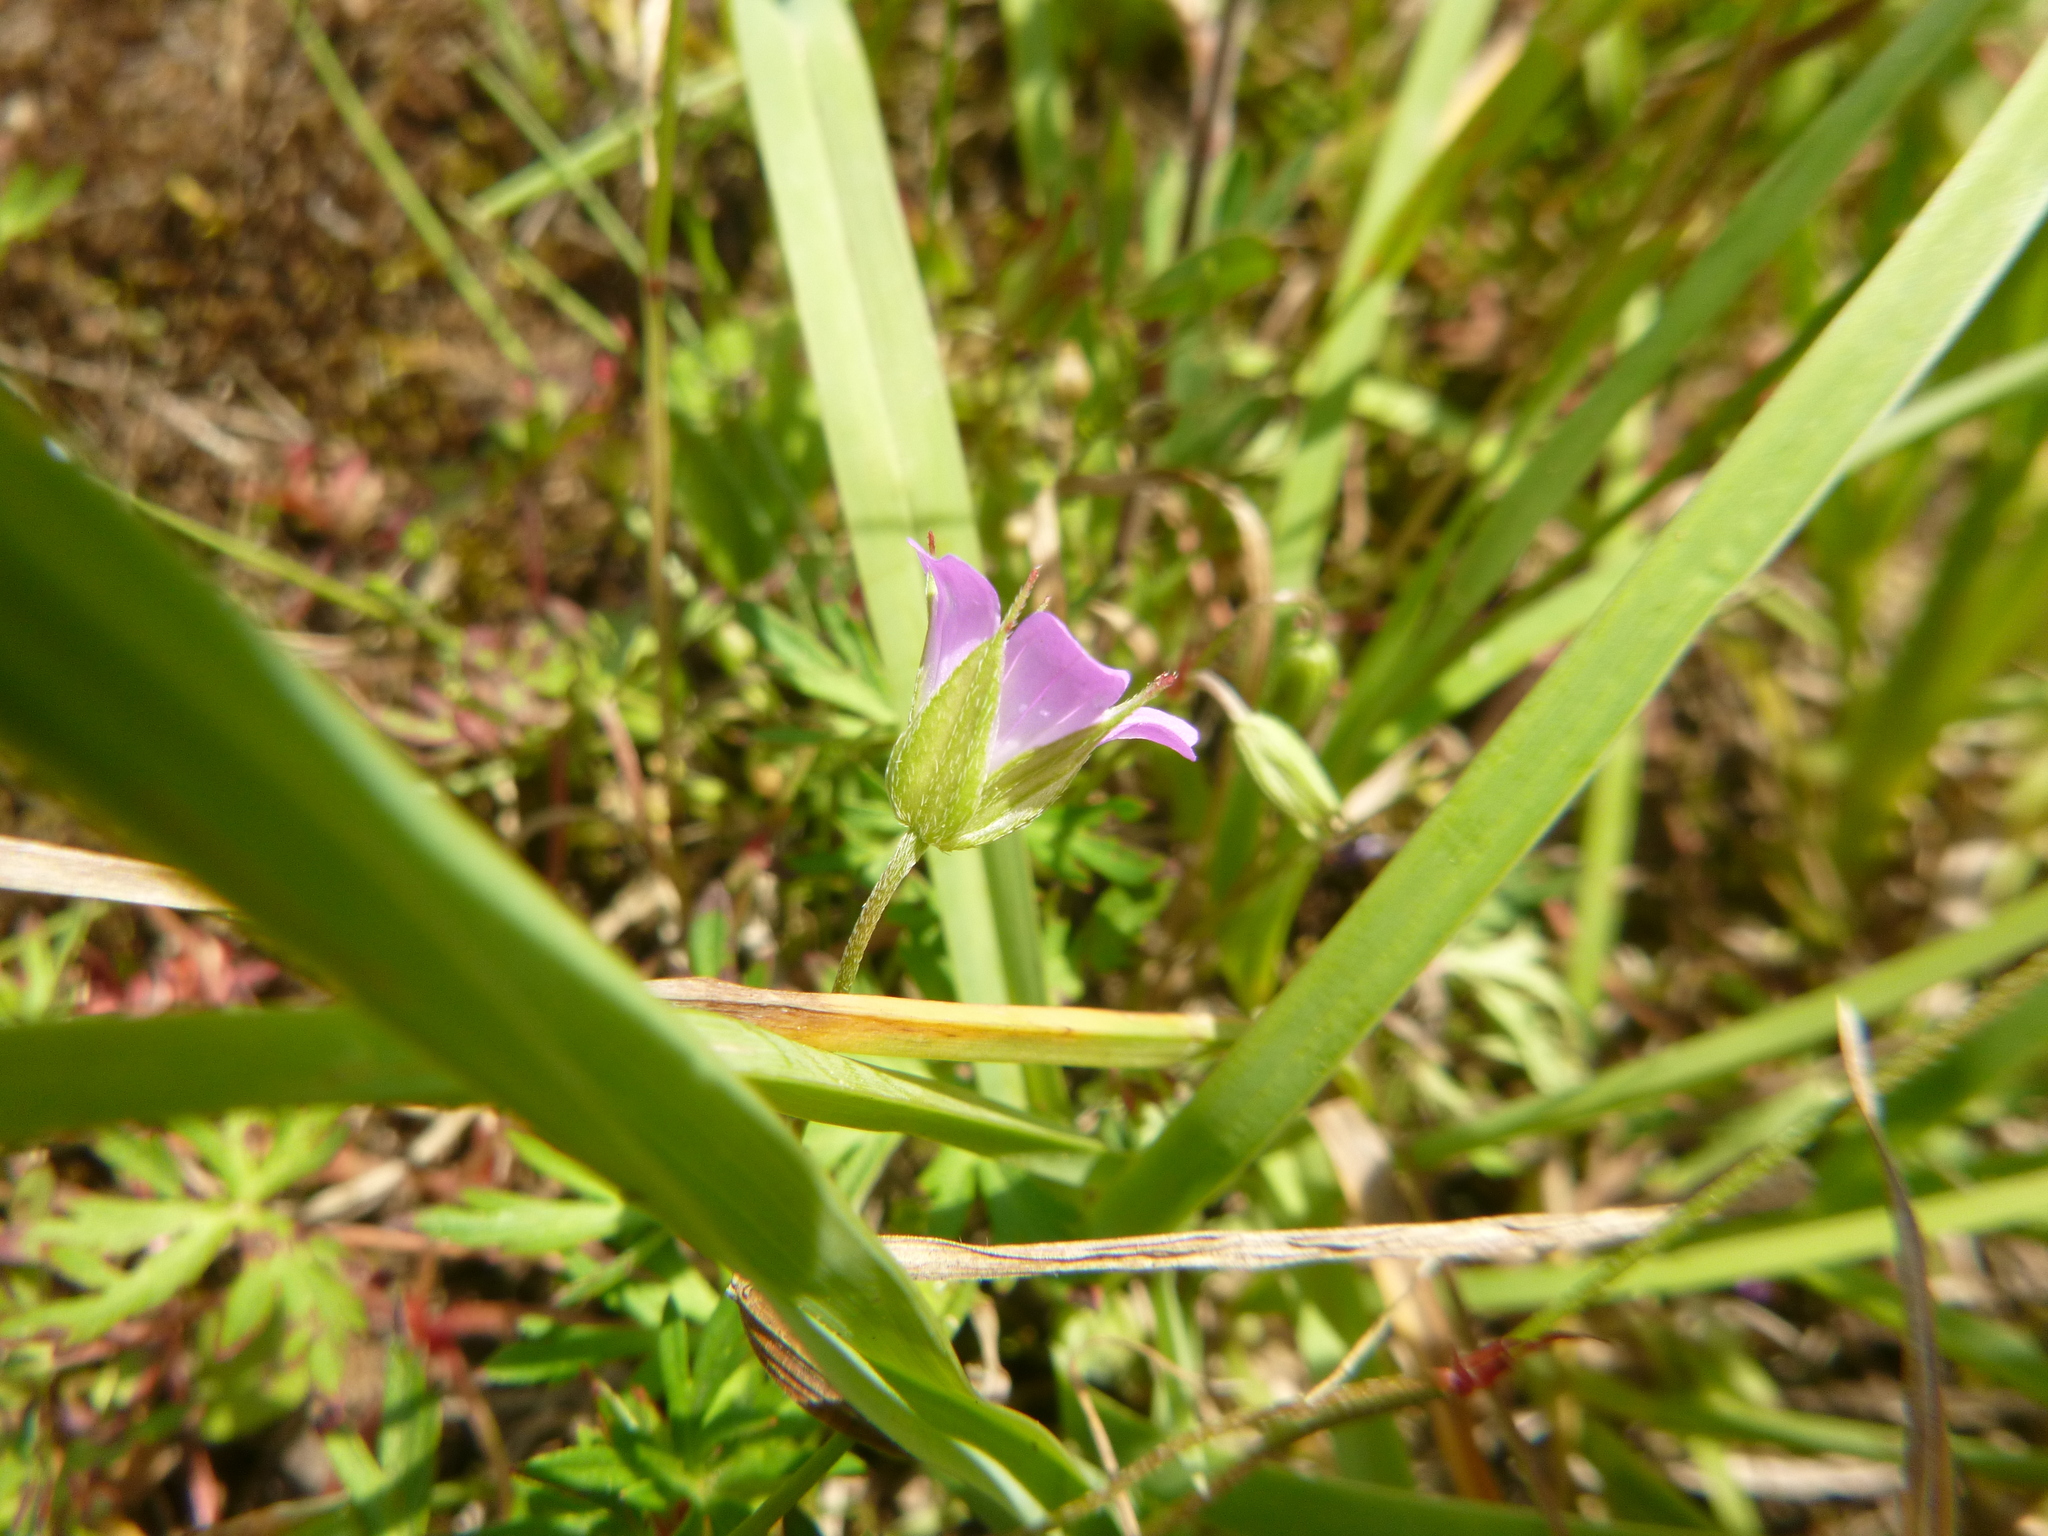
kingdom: Plantae
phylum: Tracheophyta
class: Magnoliopsida
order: Geraniales
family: Geraniaceae
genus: Geranium
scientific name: Geranium columbinum
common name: Long-stalked crane's-bill
